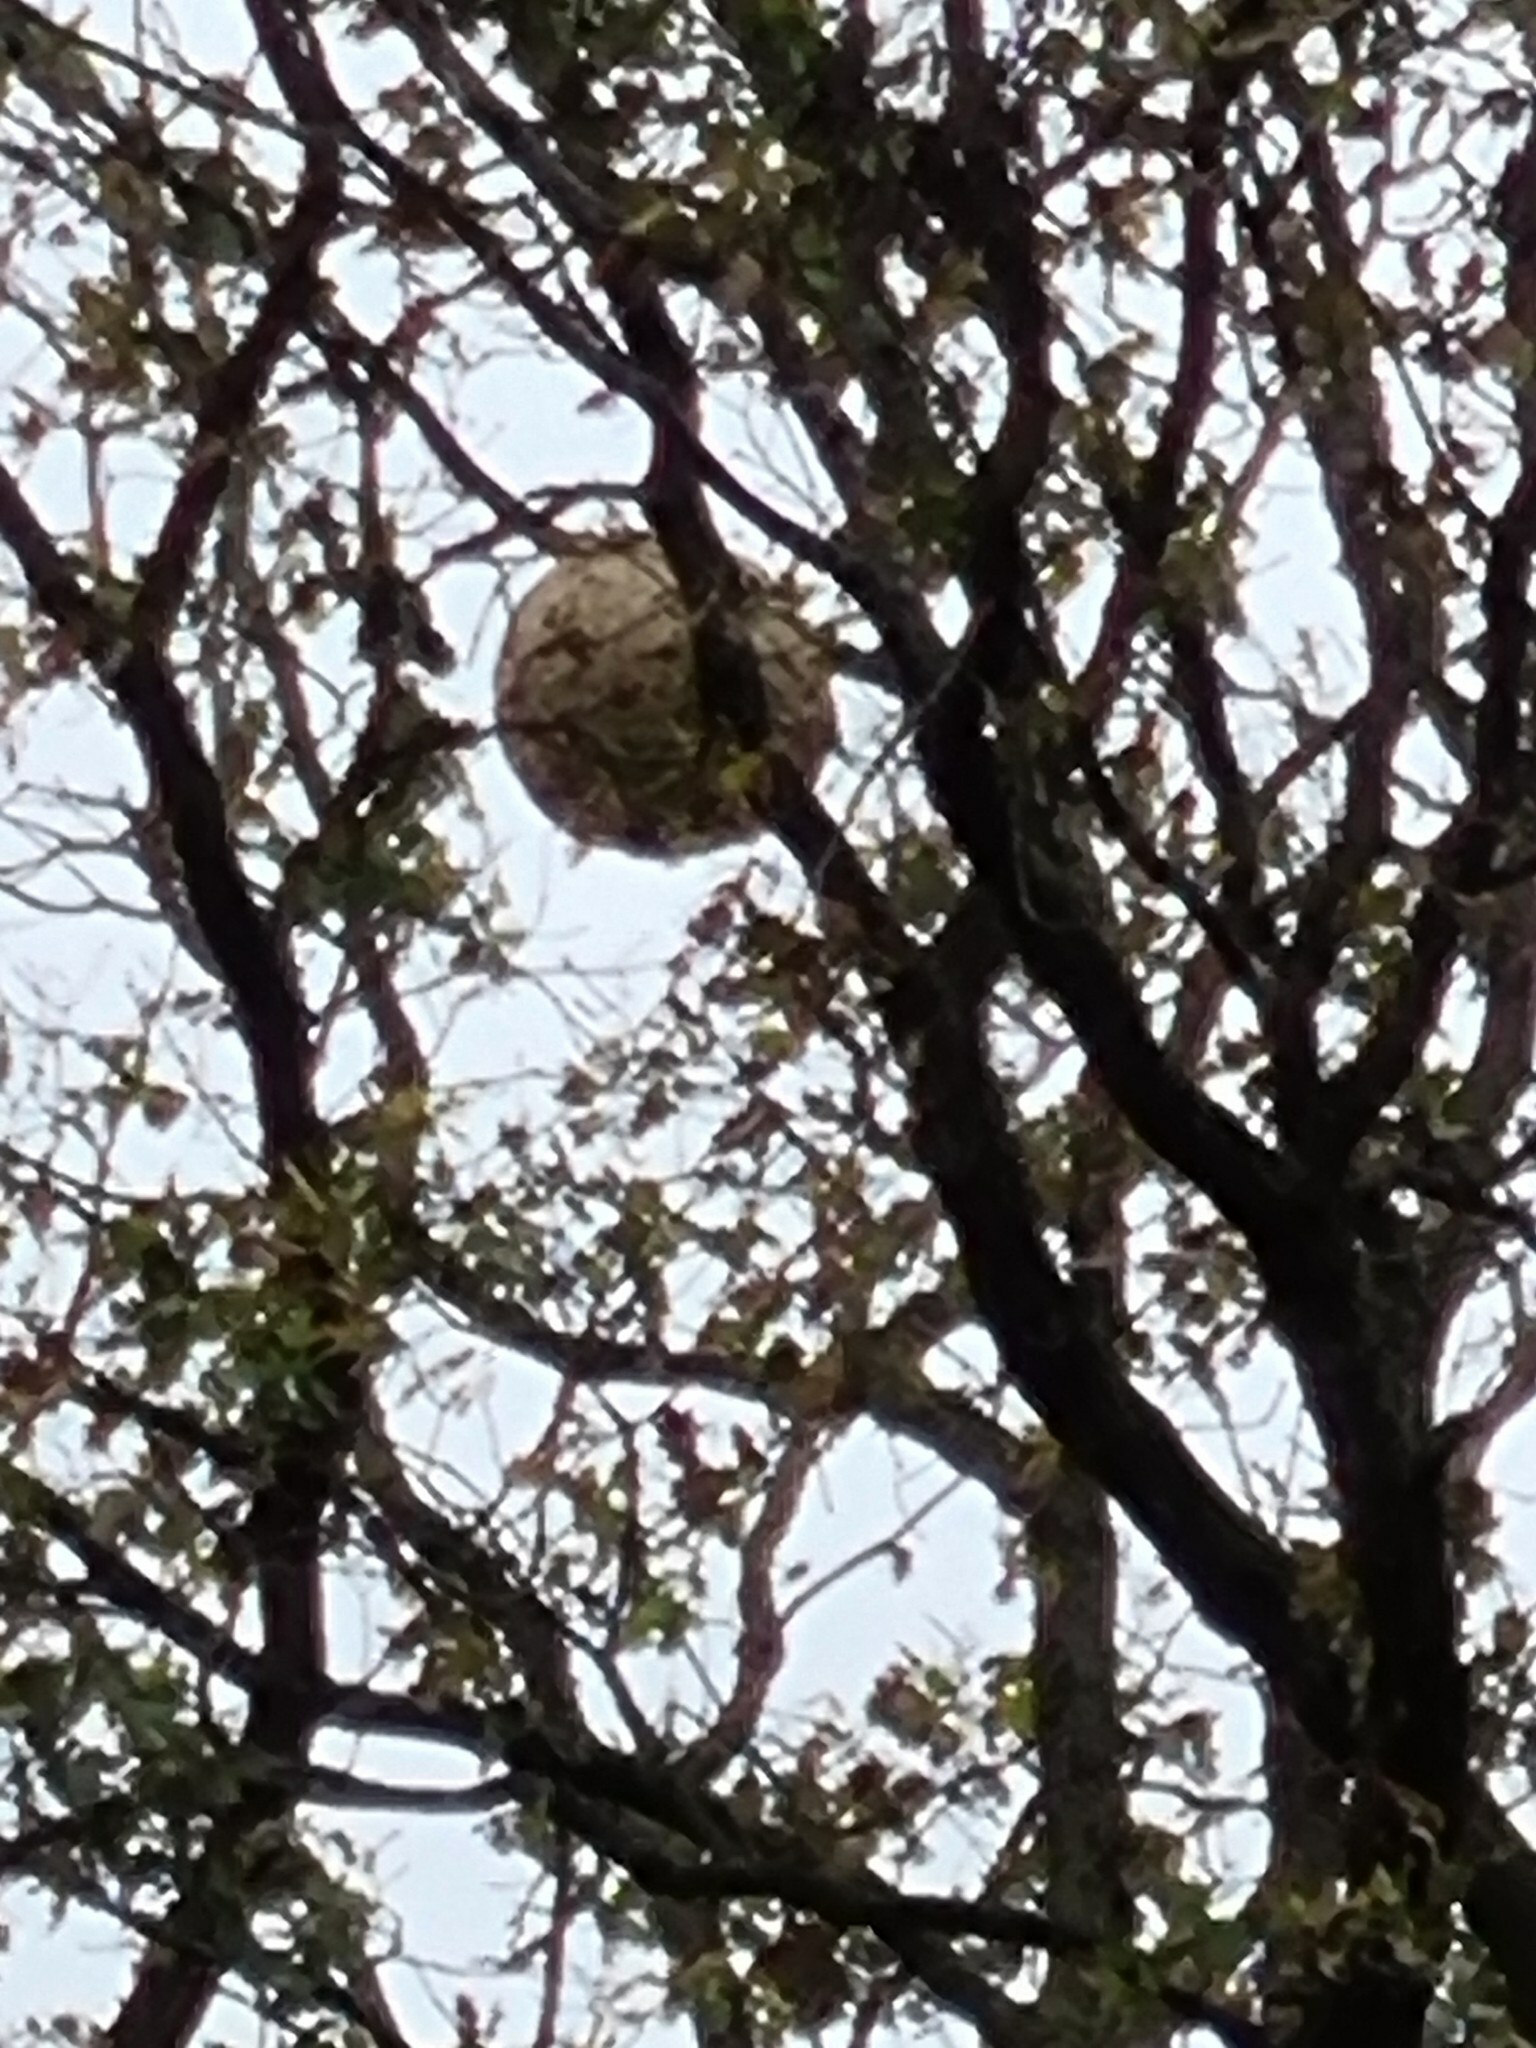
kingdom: Animalia
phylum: Arthropoda
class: Insecta
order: Hymenoptera
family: Vespidae
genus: Vespa
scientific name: Vespa velutina
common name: Asian hornet
